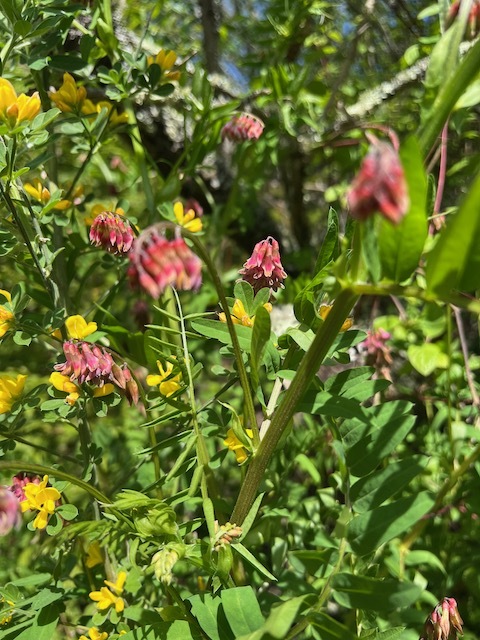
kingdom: Plantae
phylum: Tracheophyta
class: Magnoliopsida
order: Fabales
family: Fabaceae
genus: Vicia
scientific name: Vicia
